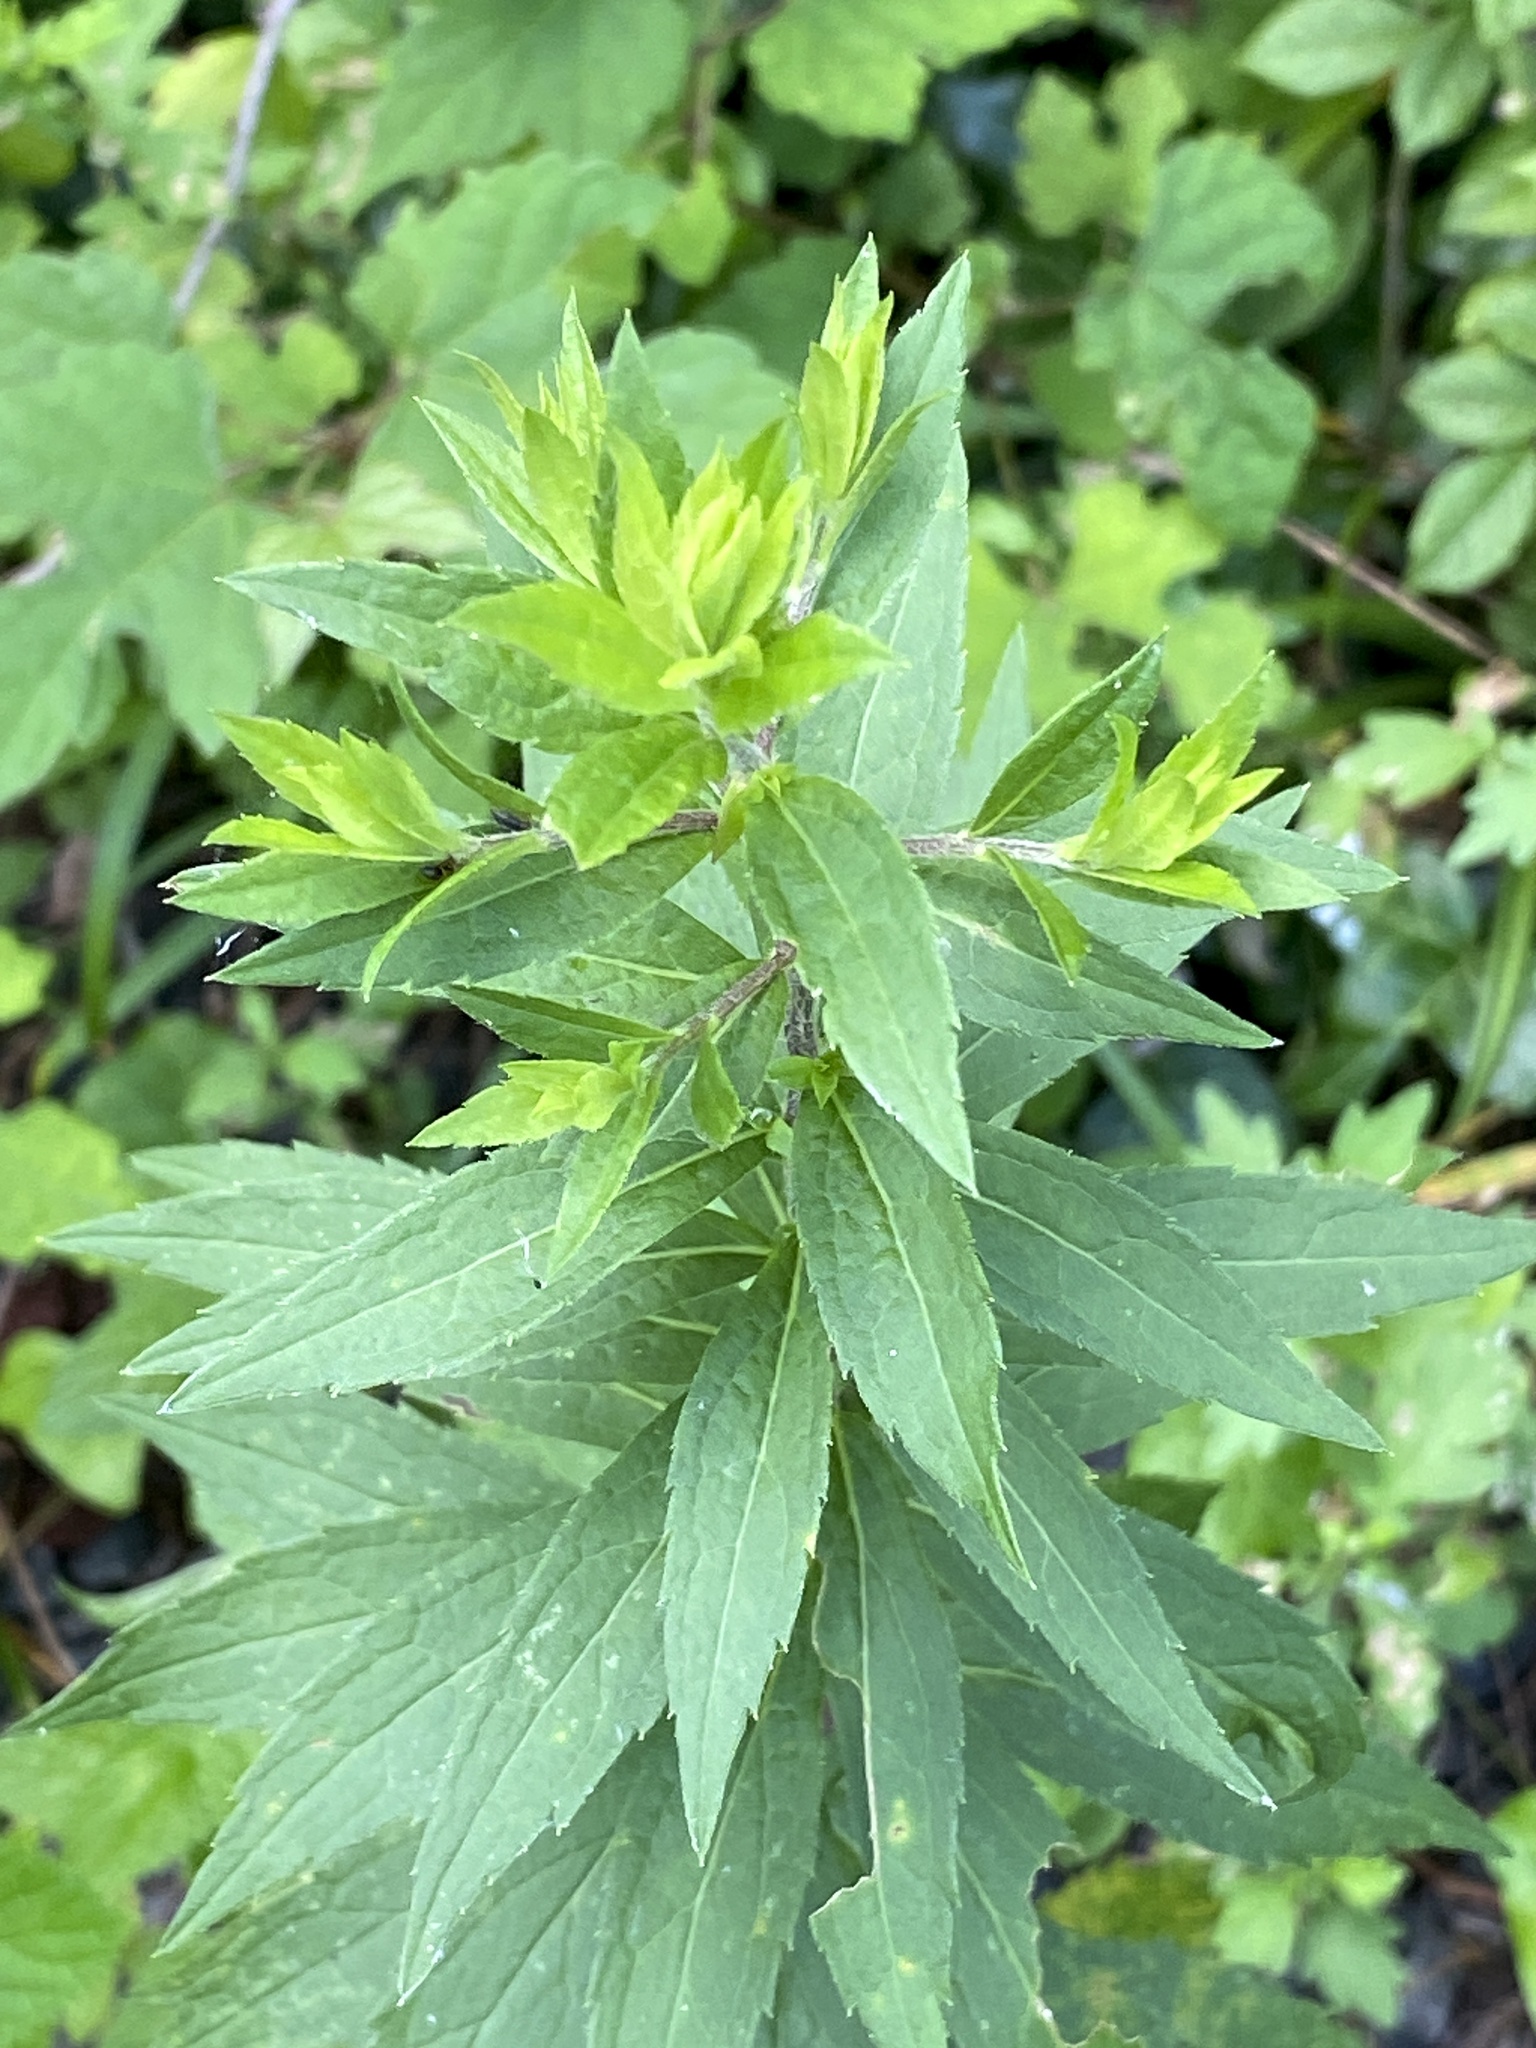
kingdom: Plantae
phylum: Tracheophyta
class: Magnoliopsida
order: Asterales
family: Asteraceae
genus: Solidago
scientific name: Solidago rugosa
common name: Rough-stemmed goldenrod
